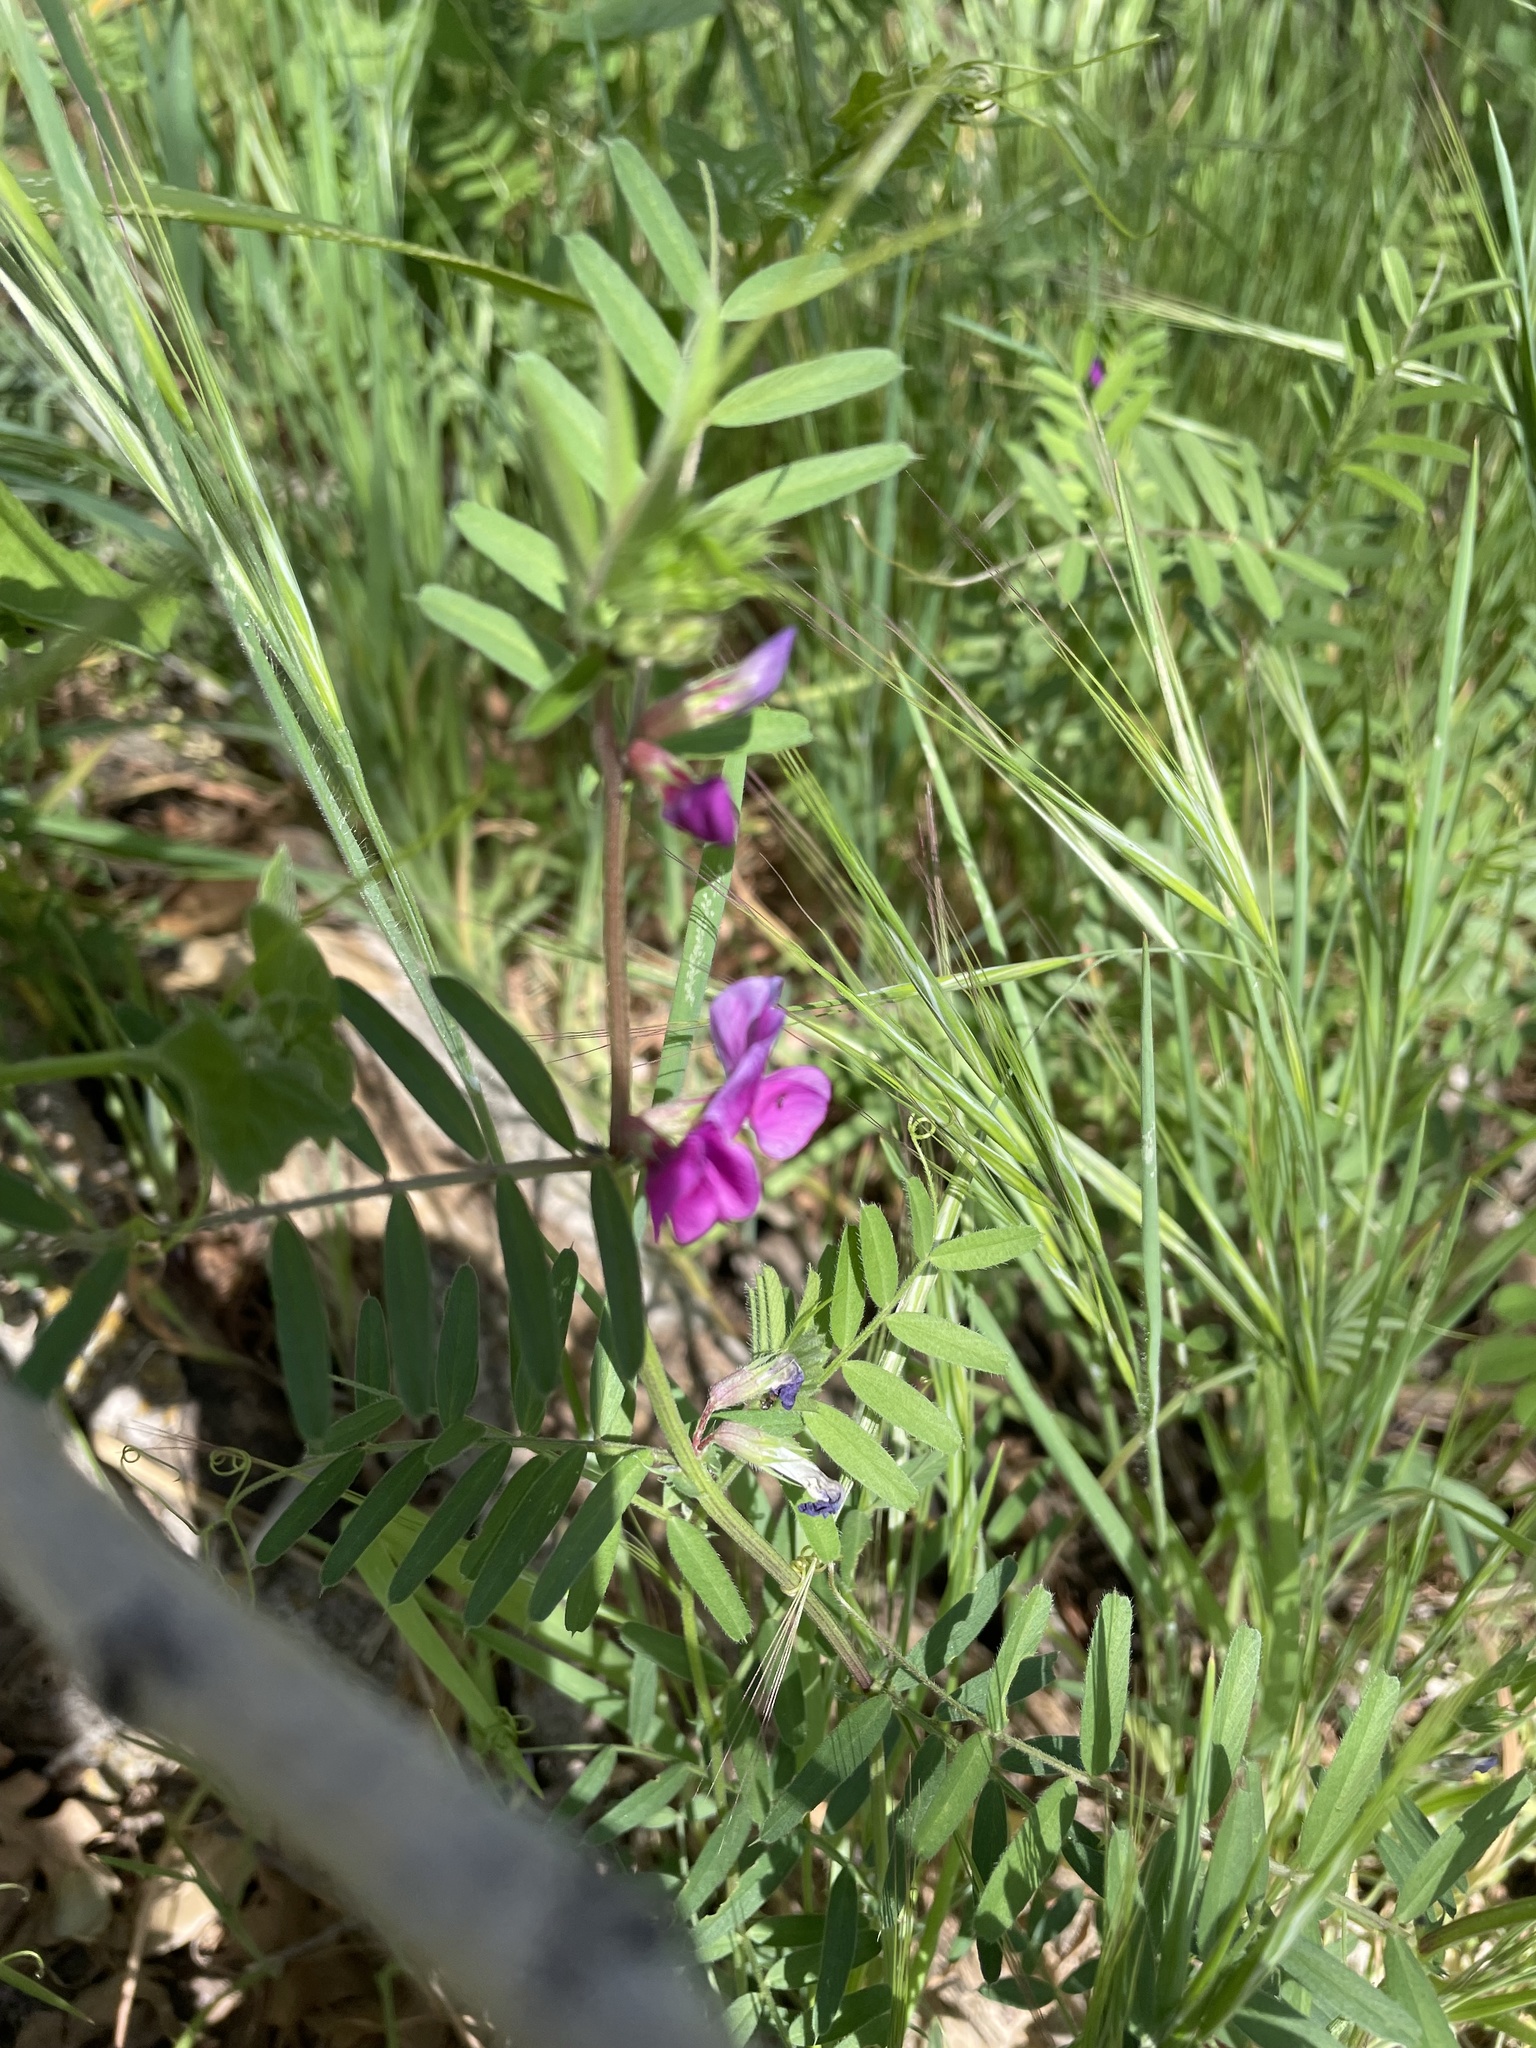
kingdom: Plantae
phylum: Tracheophyta
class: Magnoliopsida
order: Fabales
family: Fabaceae
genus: Vicia
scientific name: Vicia sativa
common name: Garden vetch
